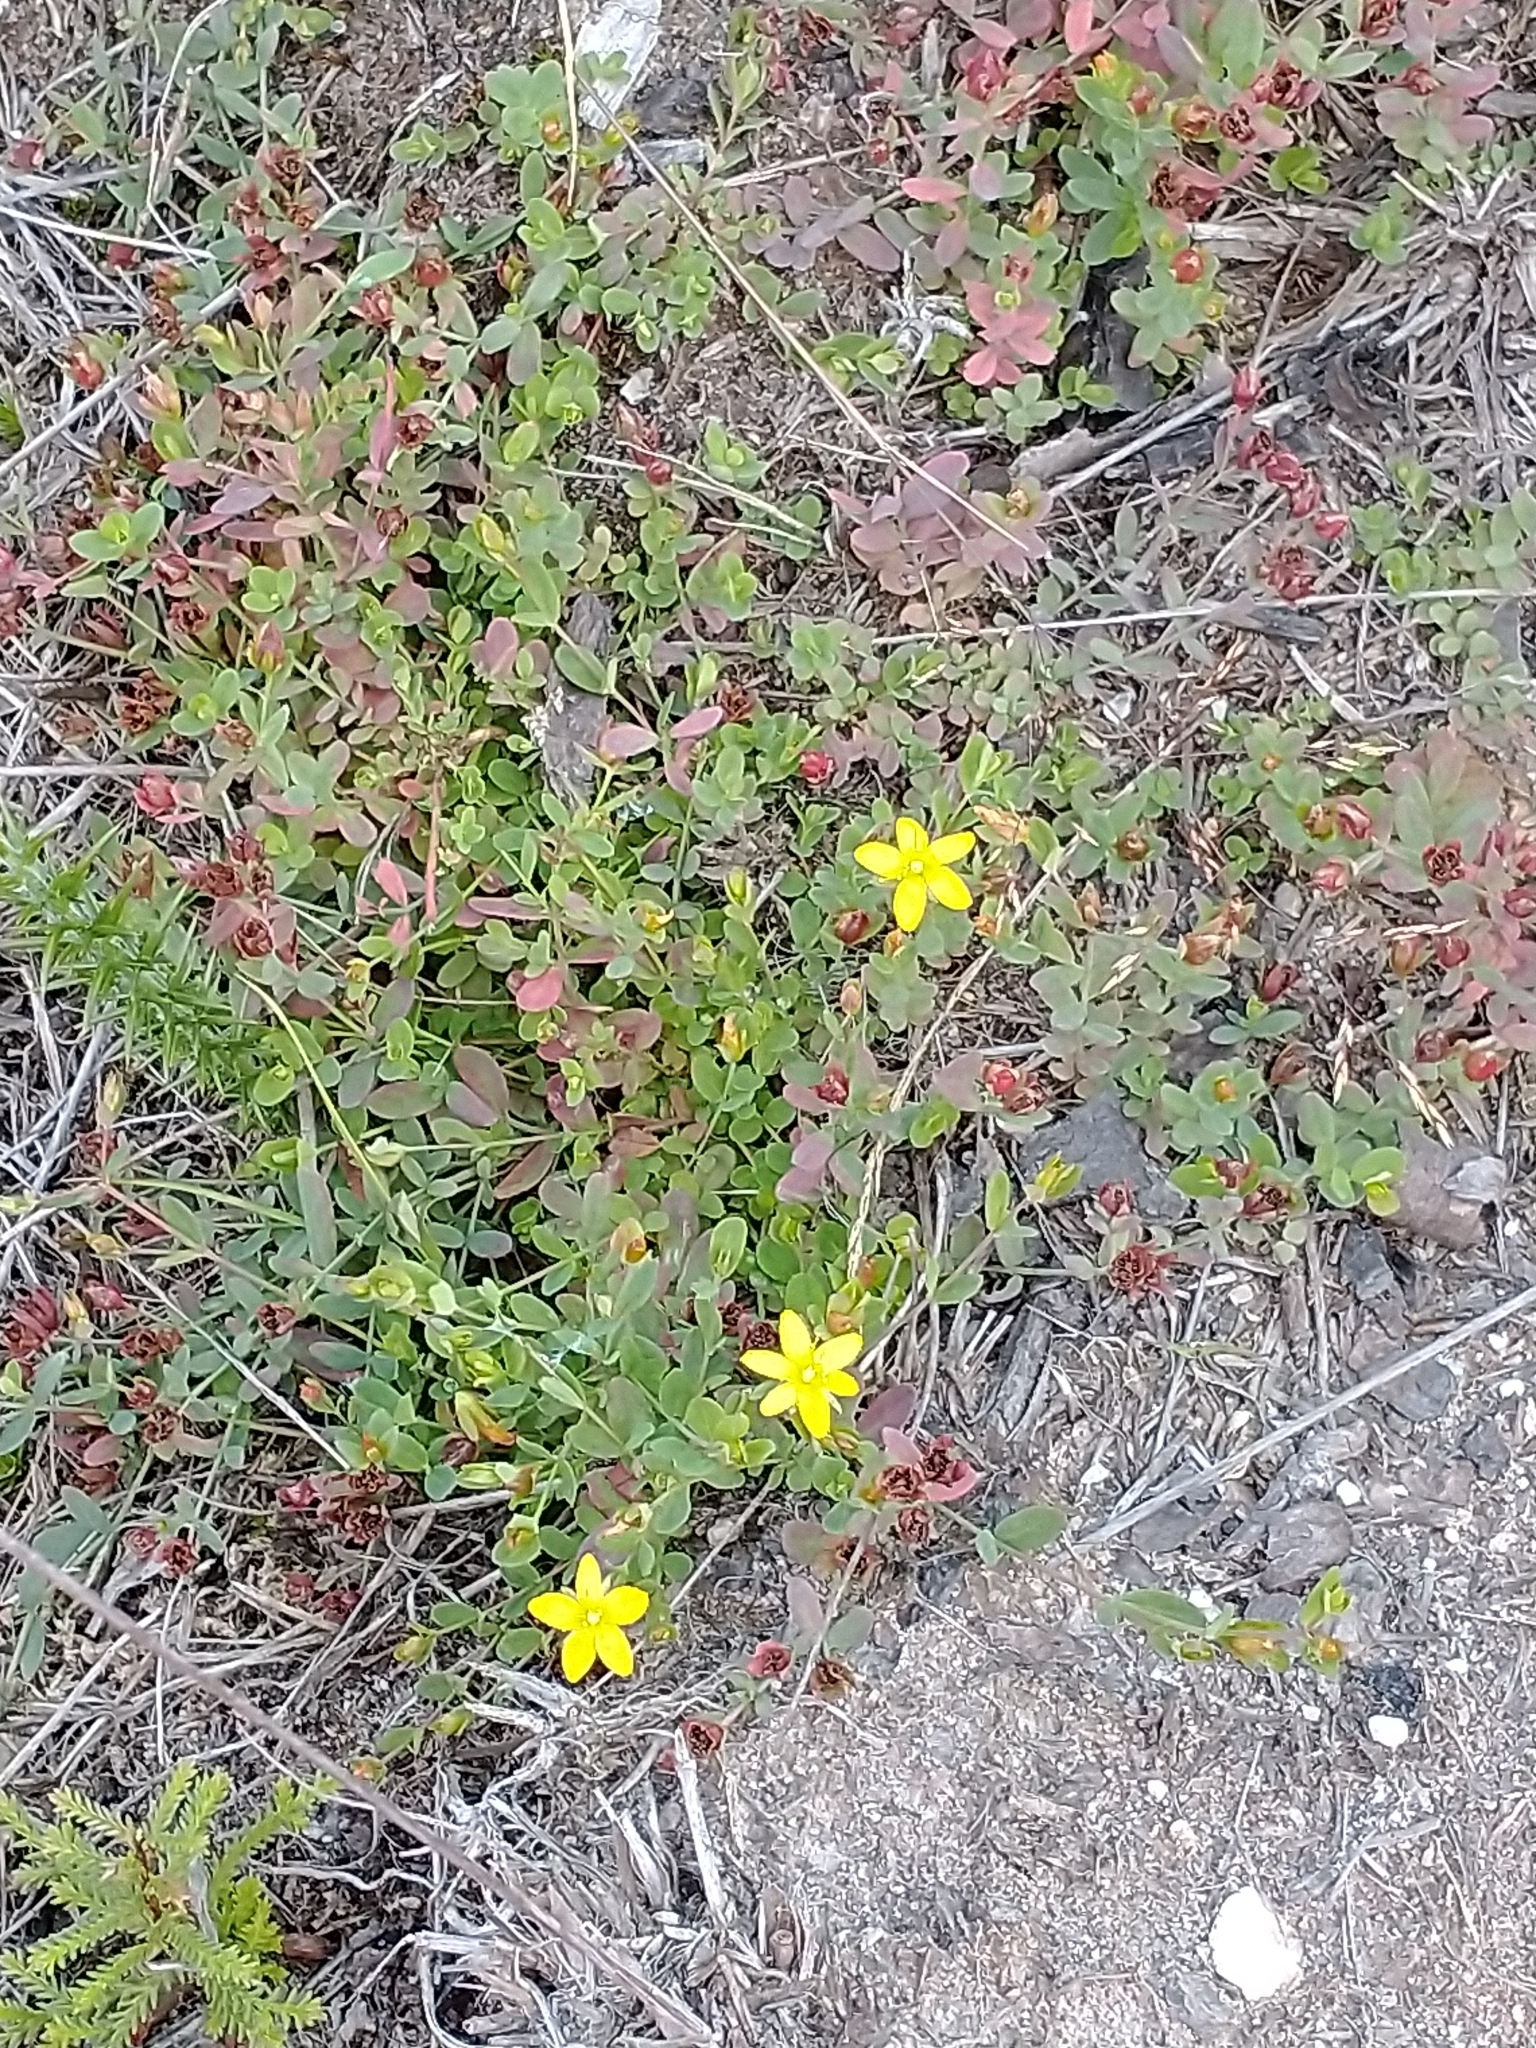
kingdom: Plantae
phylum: Tracheophyta
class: Magnoliopsida
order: Malpighiales
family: Hypericaceae
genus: Hypericum
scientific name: Hypericum humifusum
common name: Trailing st. john's-wort
